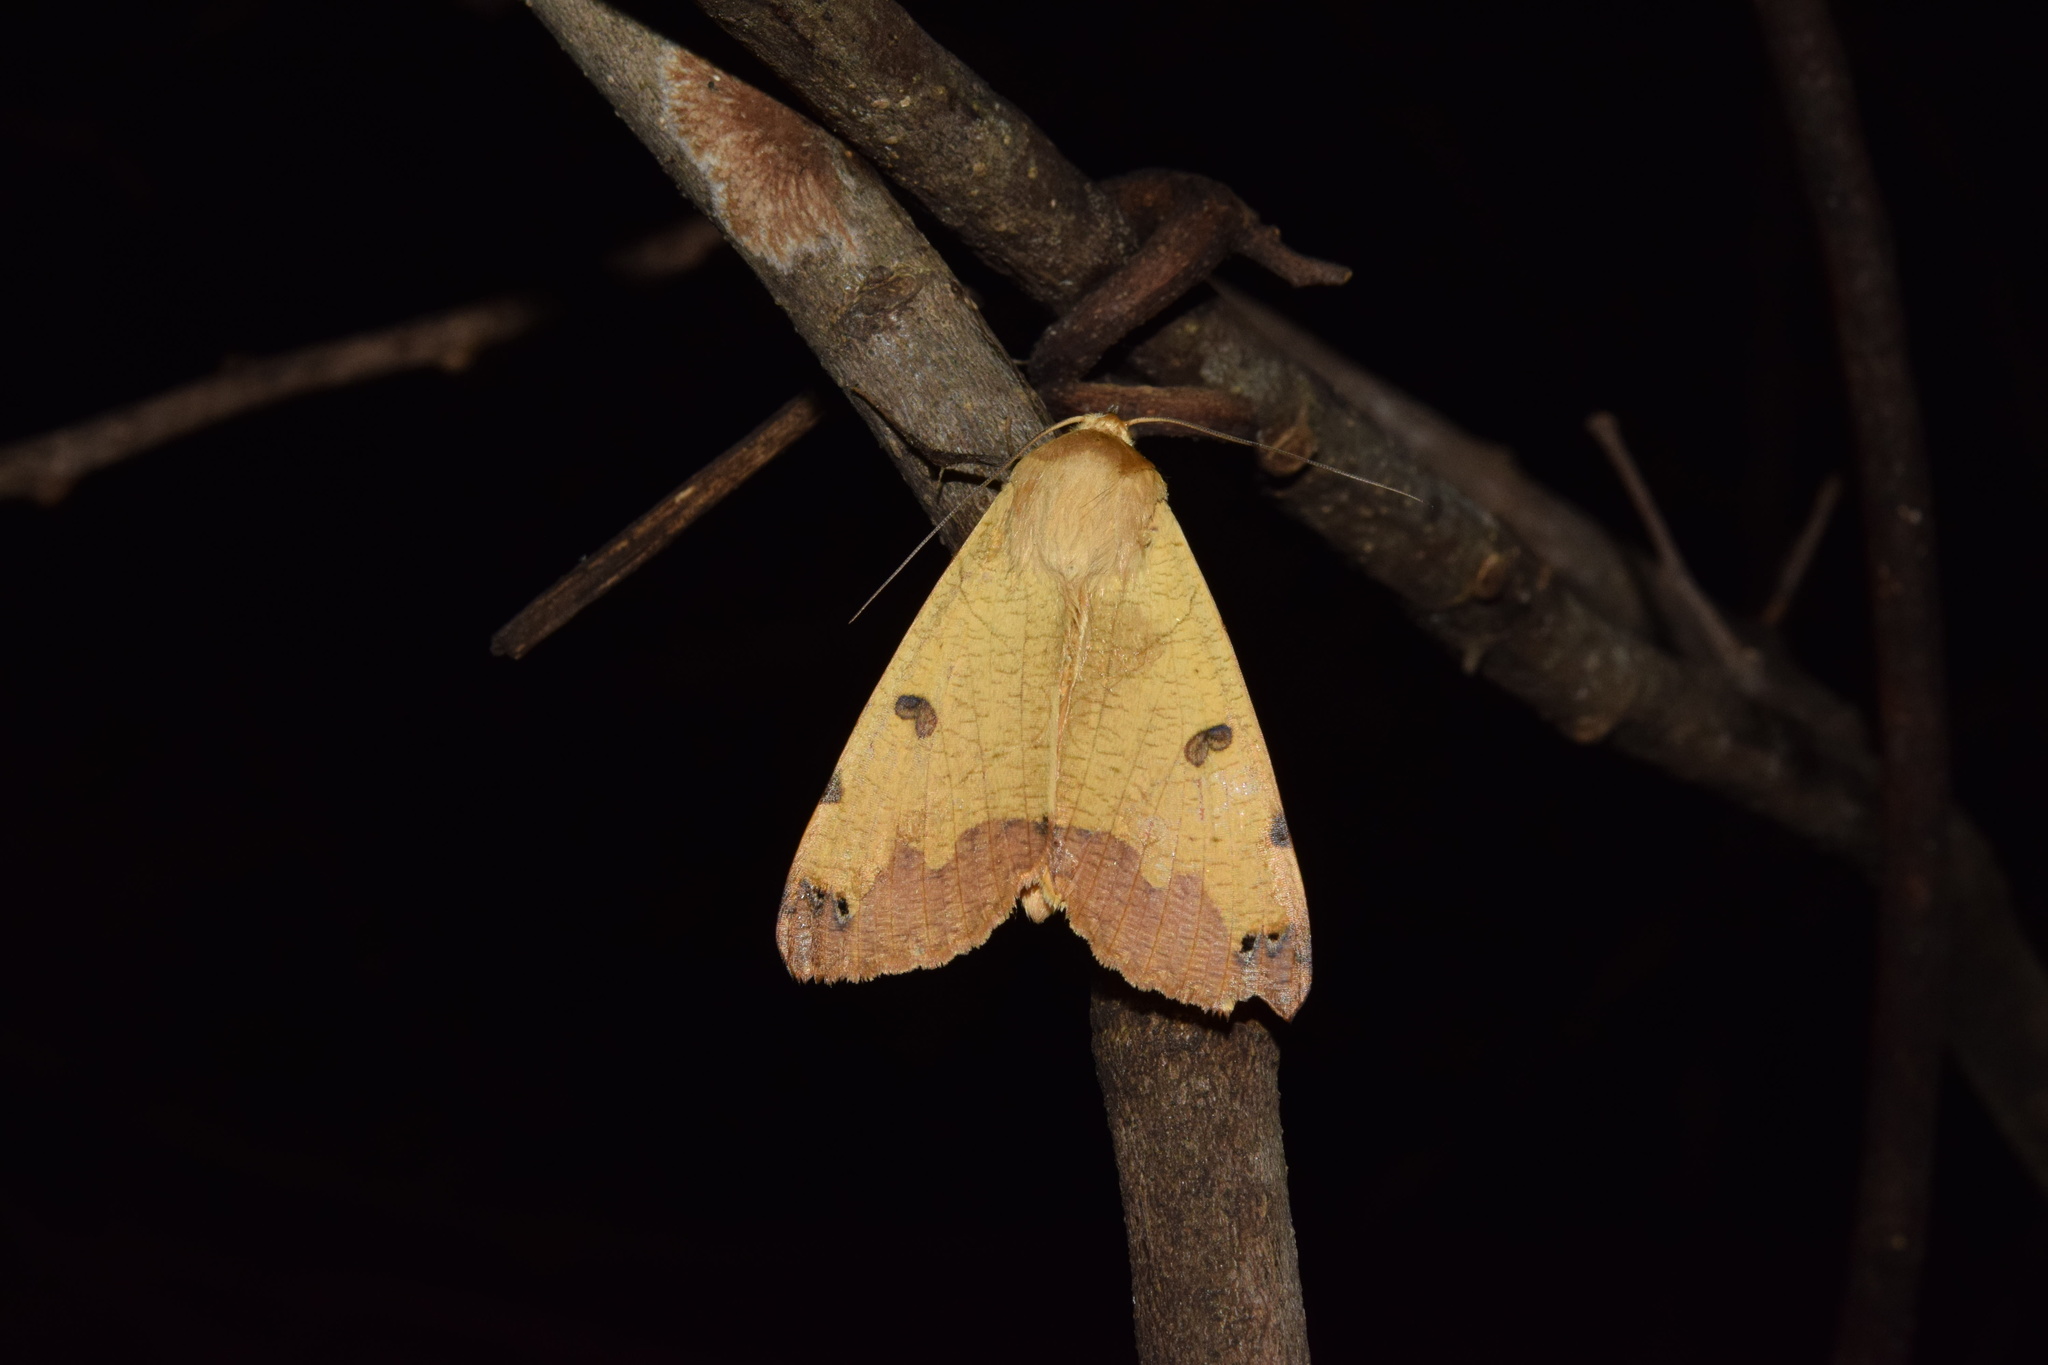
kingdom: Animalia
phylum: Arthropoda
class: Insecta
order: Lepidoptera
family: Erebidae
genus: Ophiusa
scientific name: Ophiusa tirhaca
